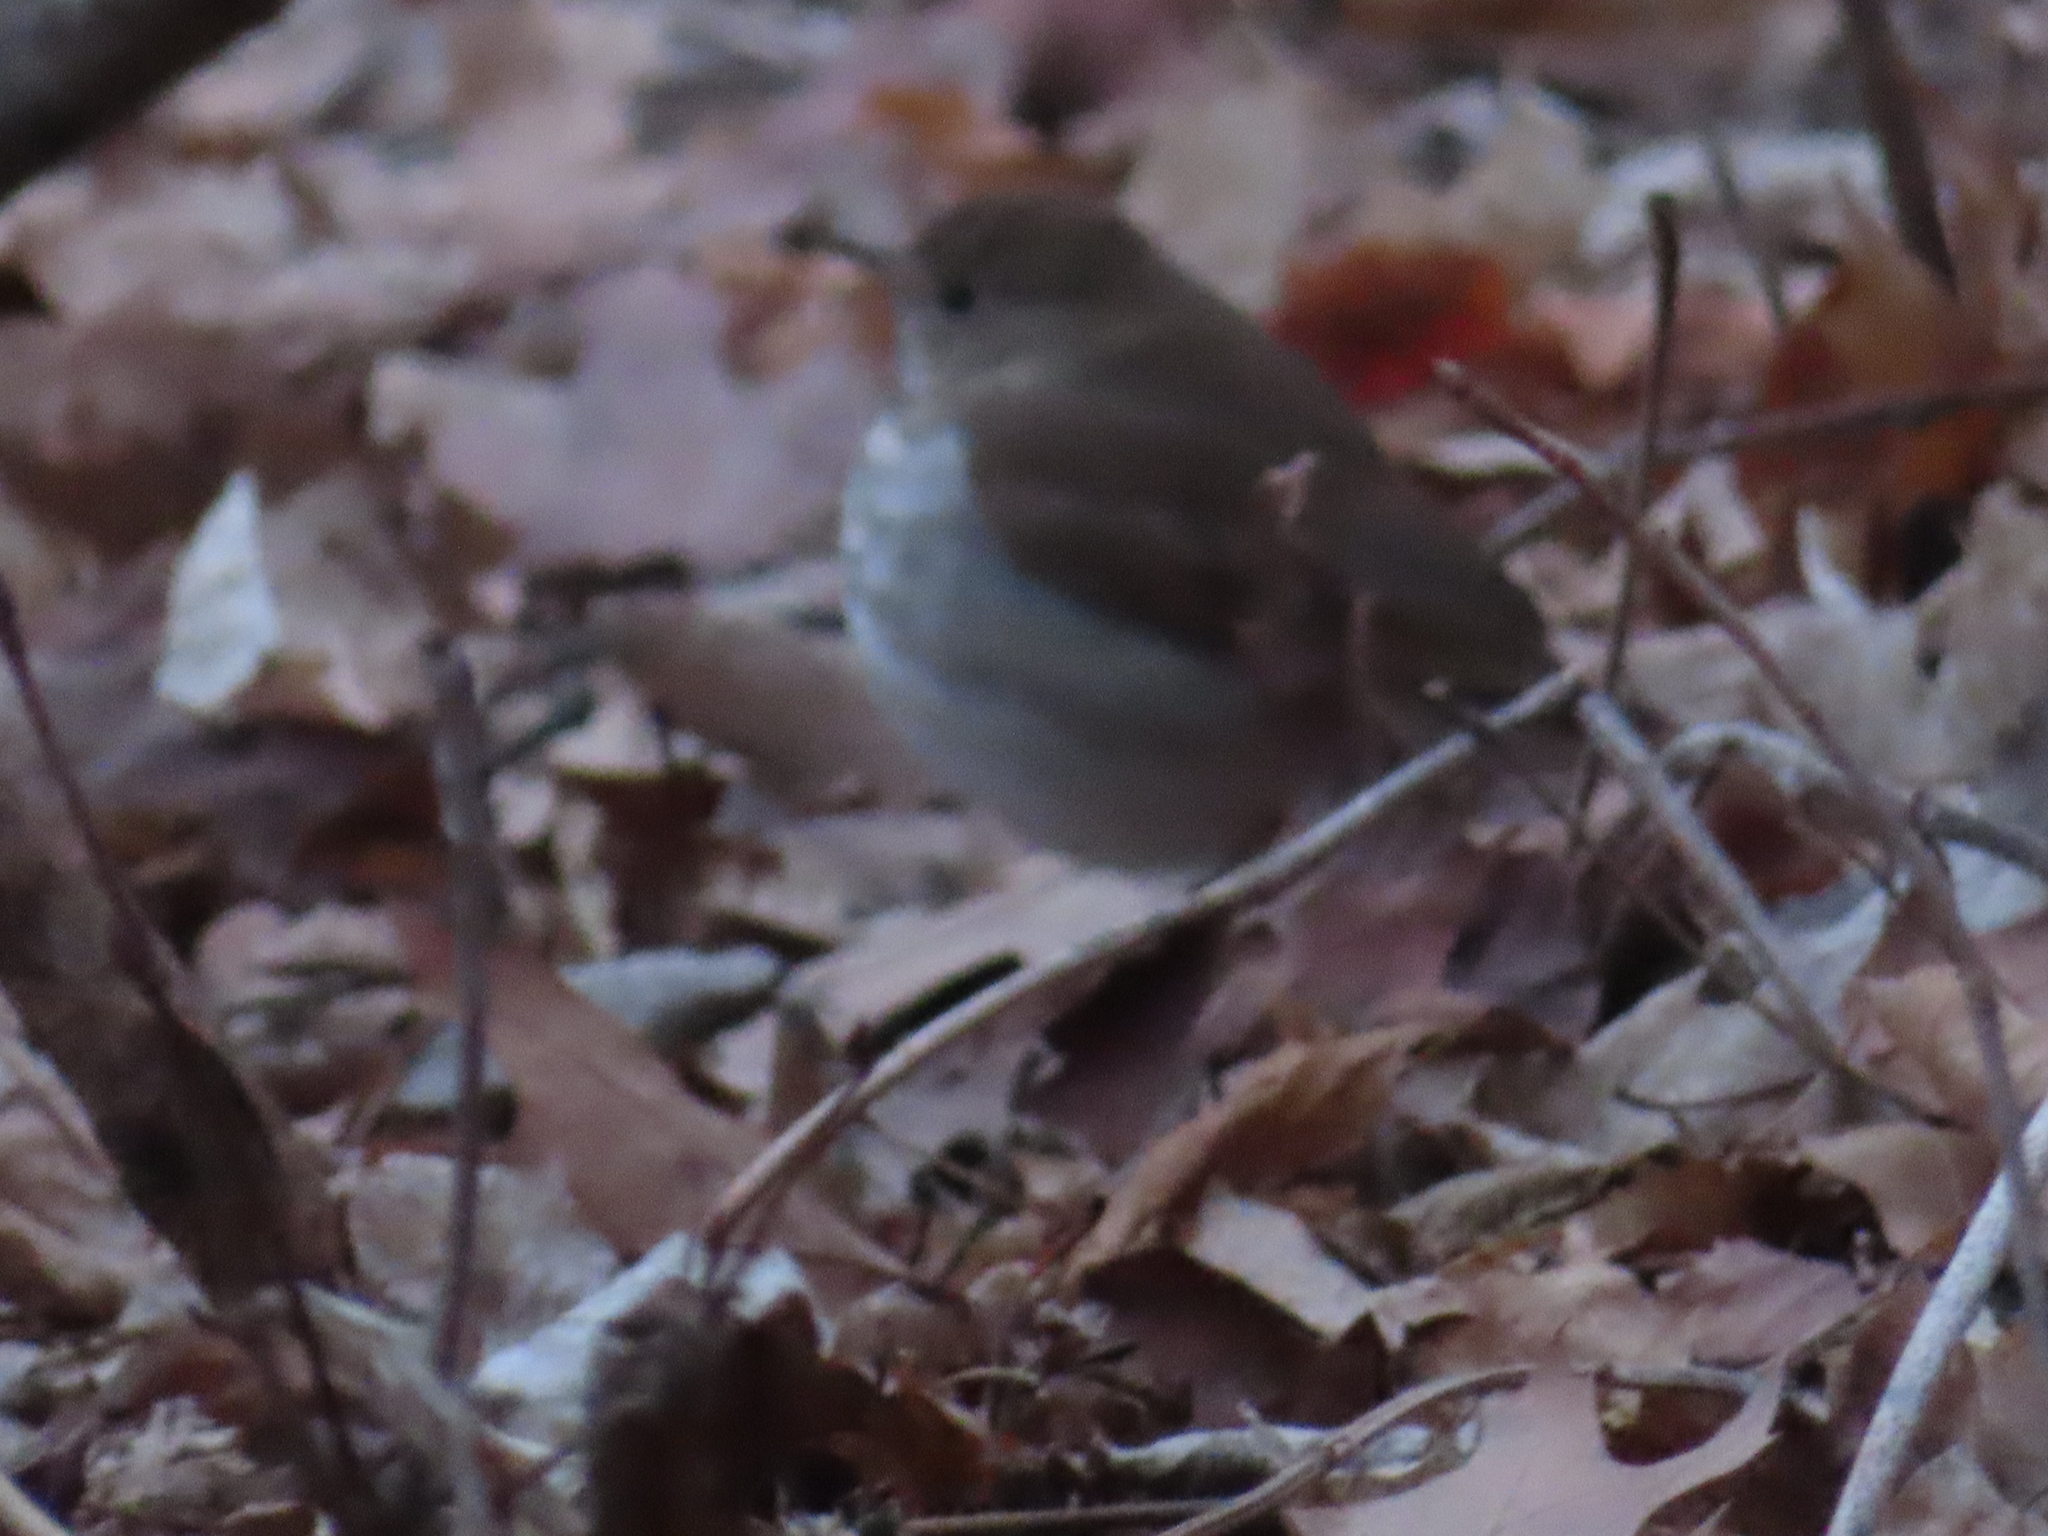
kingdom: Animalia
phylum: Chordata
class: Aves
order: Passeriformes
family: Turdidae
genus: Catharus
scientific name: Catharus guttatus
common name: Hermit thrush
